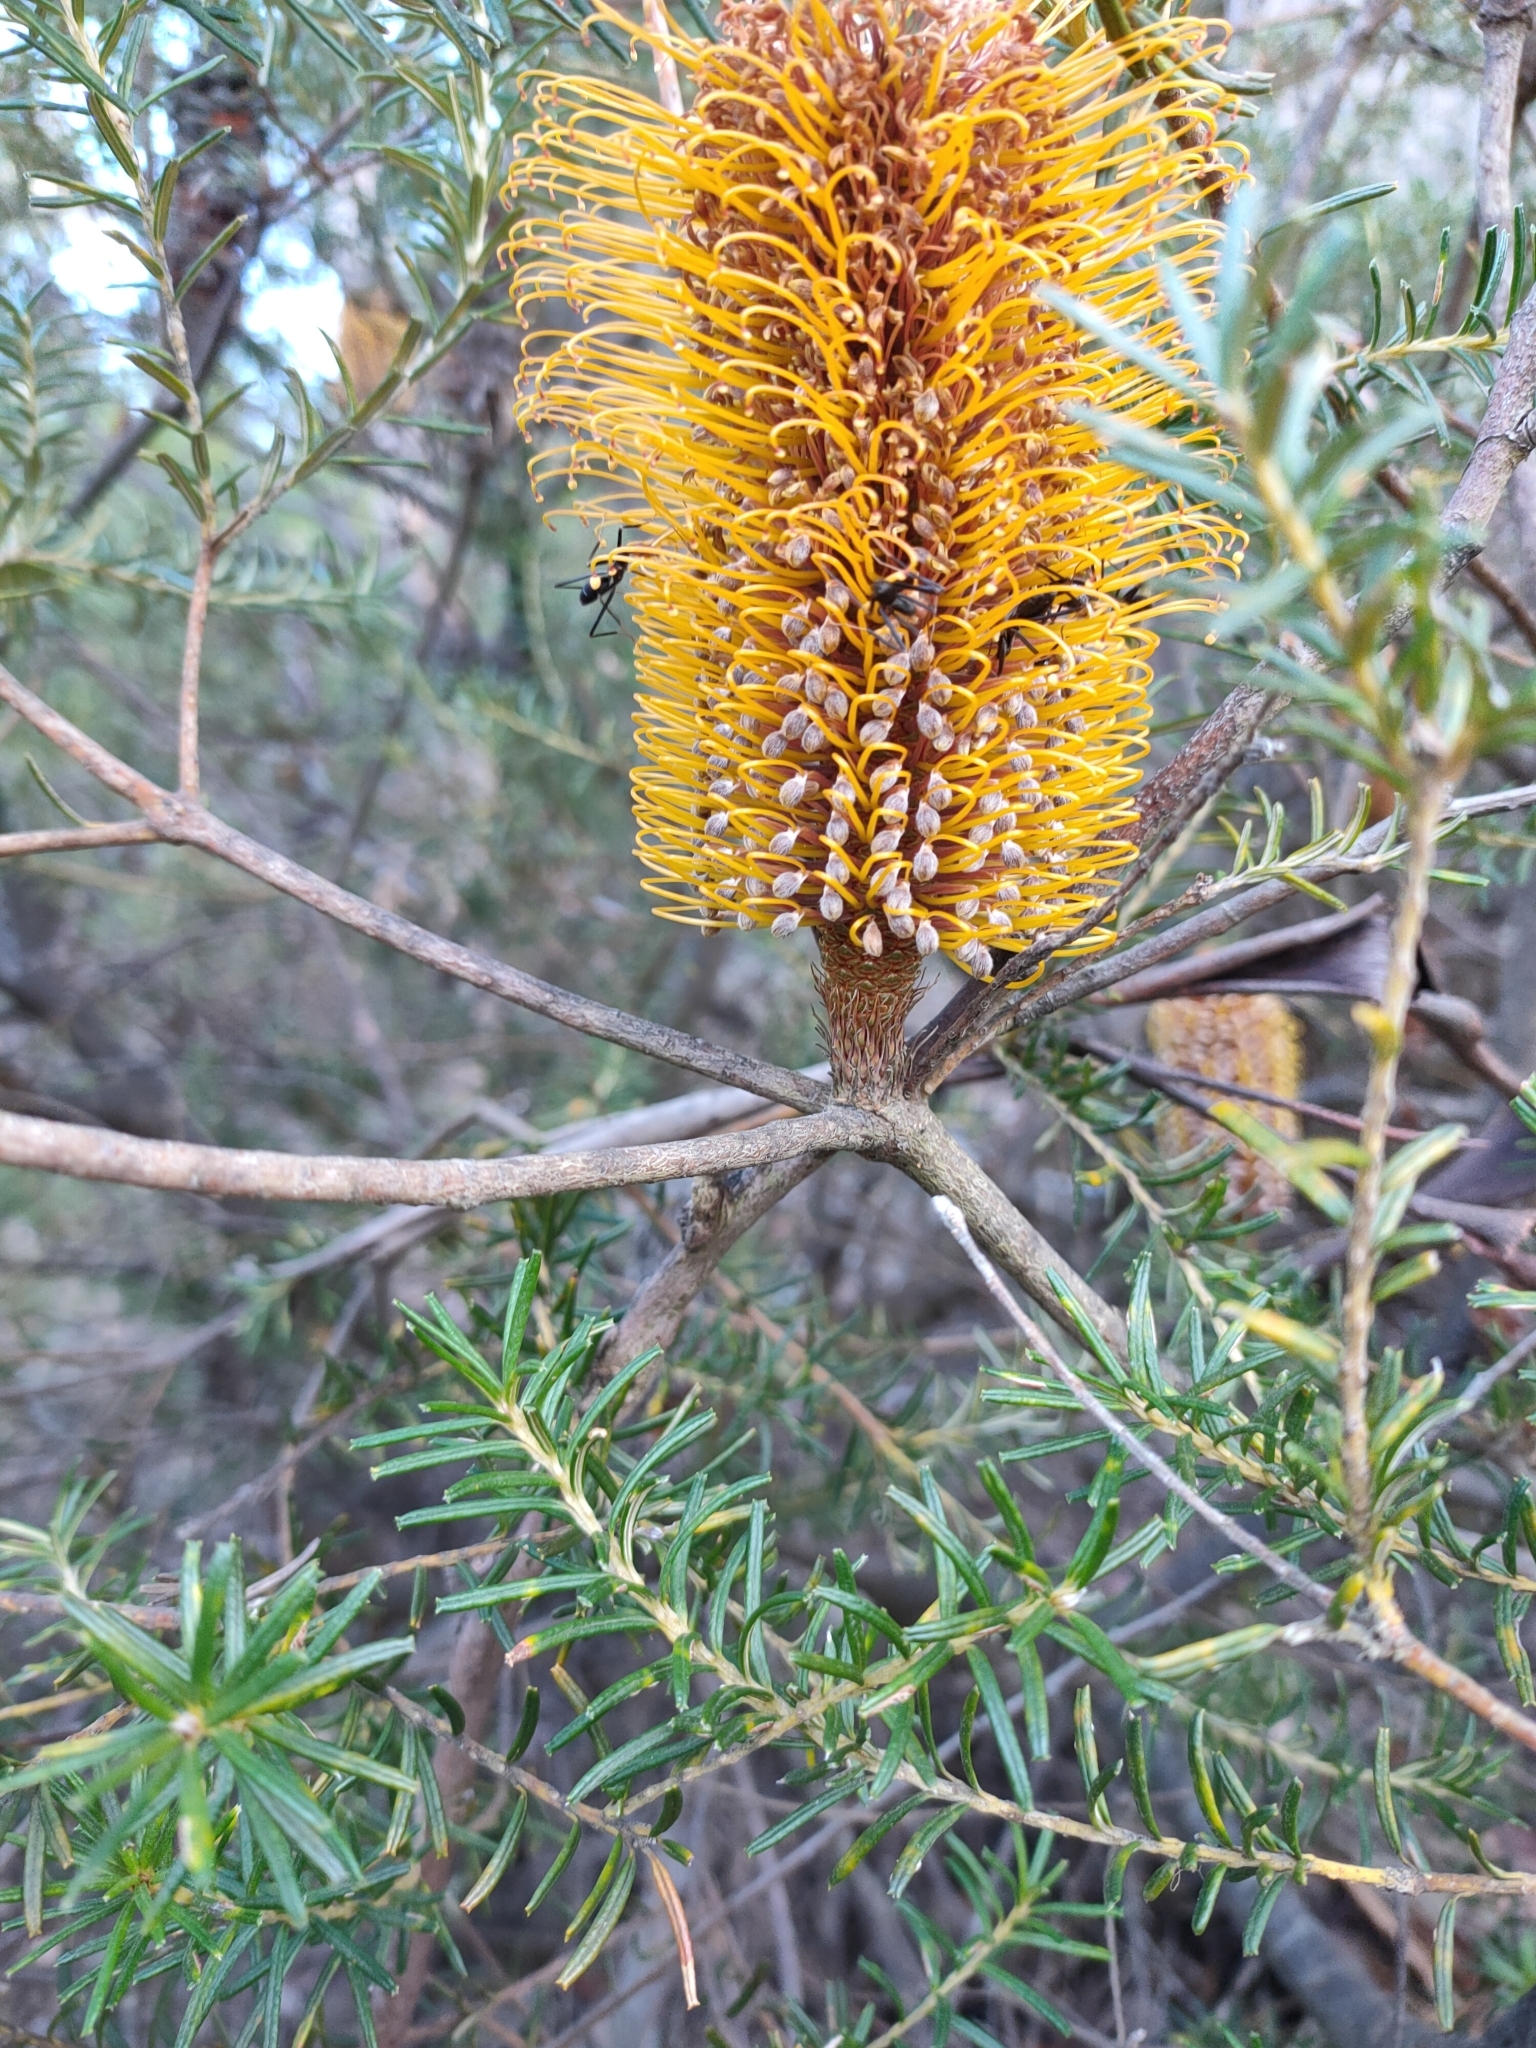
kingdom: Plantae
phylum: Tracheophyta
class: Magnoliopsida
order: Proteales
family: Proteaceae
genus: Banksia
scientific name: Banksia ericifolia
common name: Heath-leaf banksia
